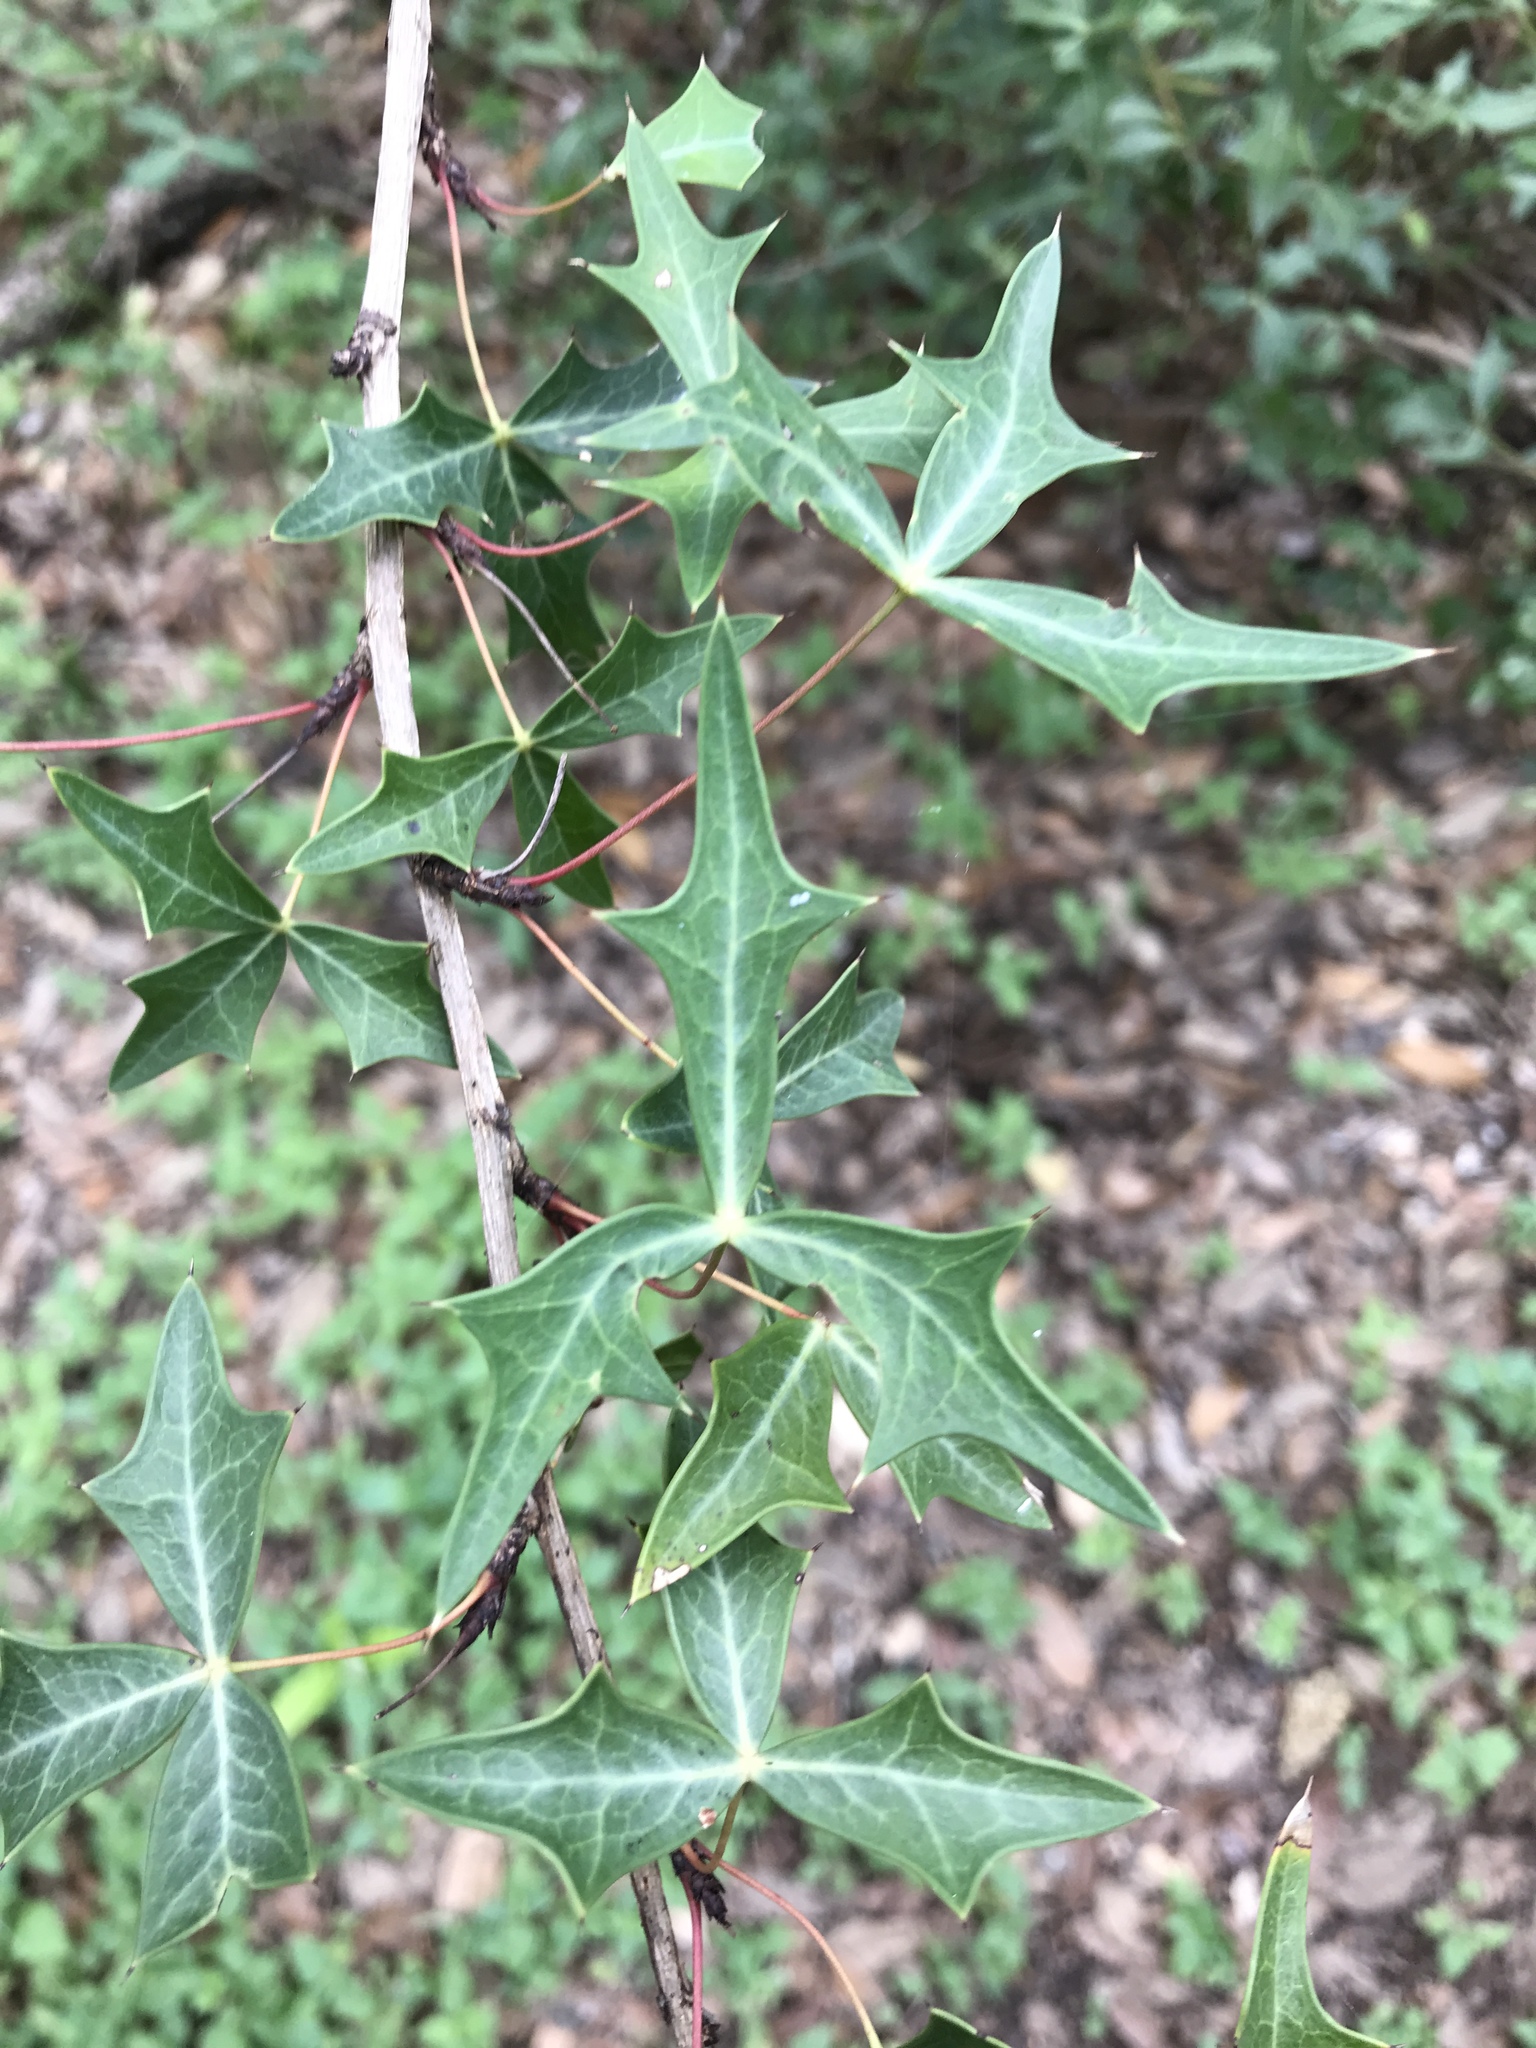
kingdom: Plantae
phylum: Tracheophyta
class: Magnoliopsida
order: Ranunculales
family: Berberidaceae
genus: Alloberberis
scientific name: Alloberberis trifoliolata
